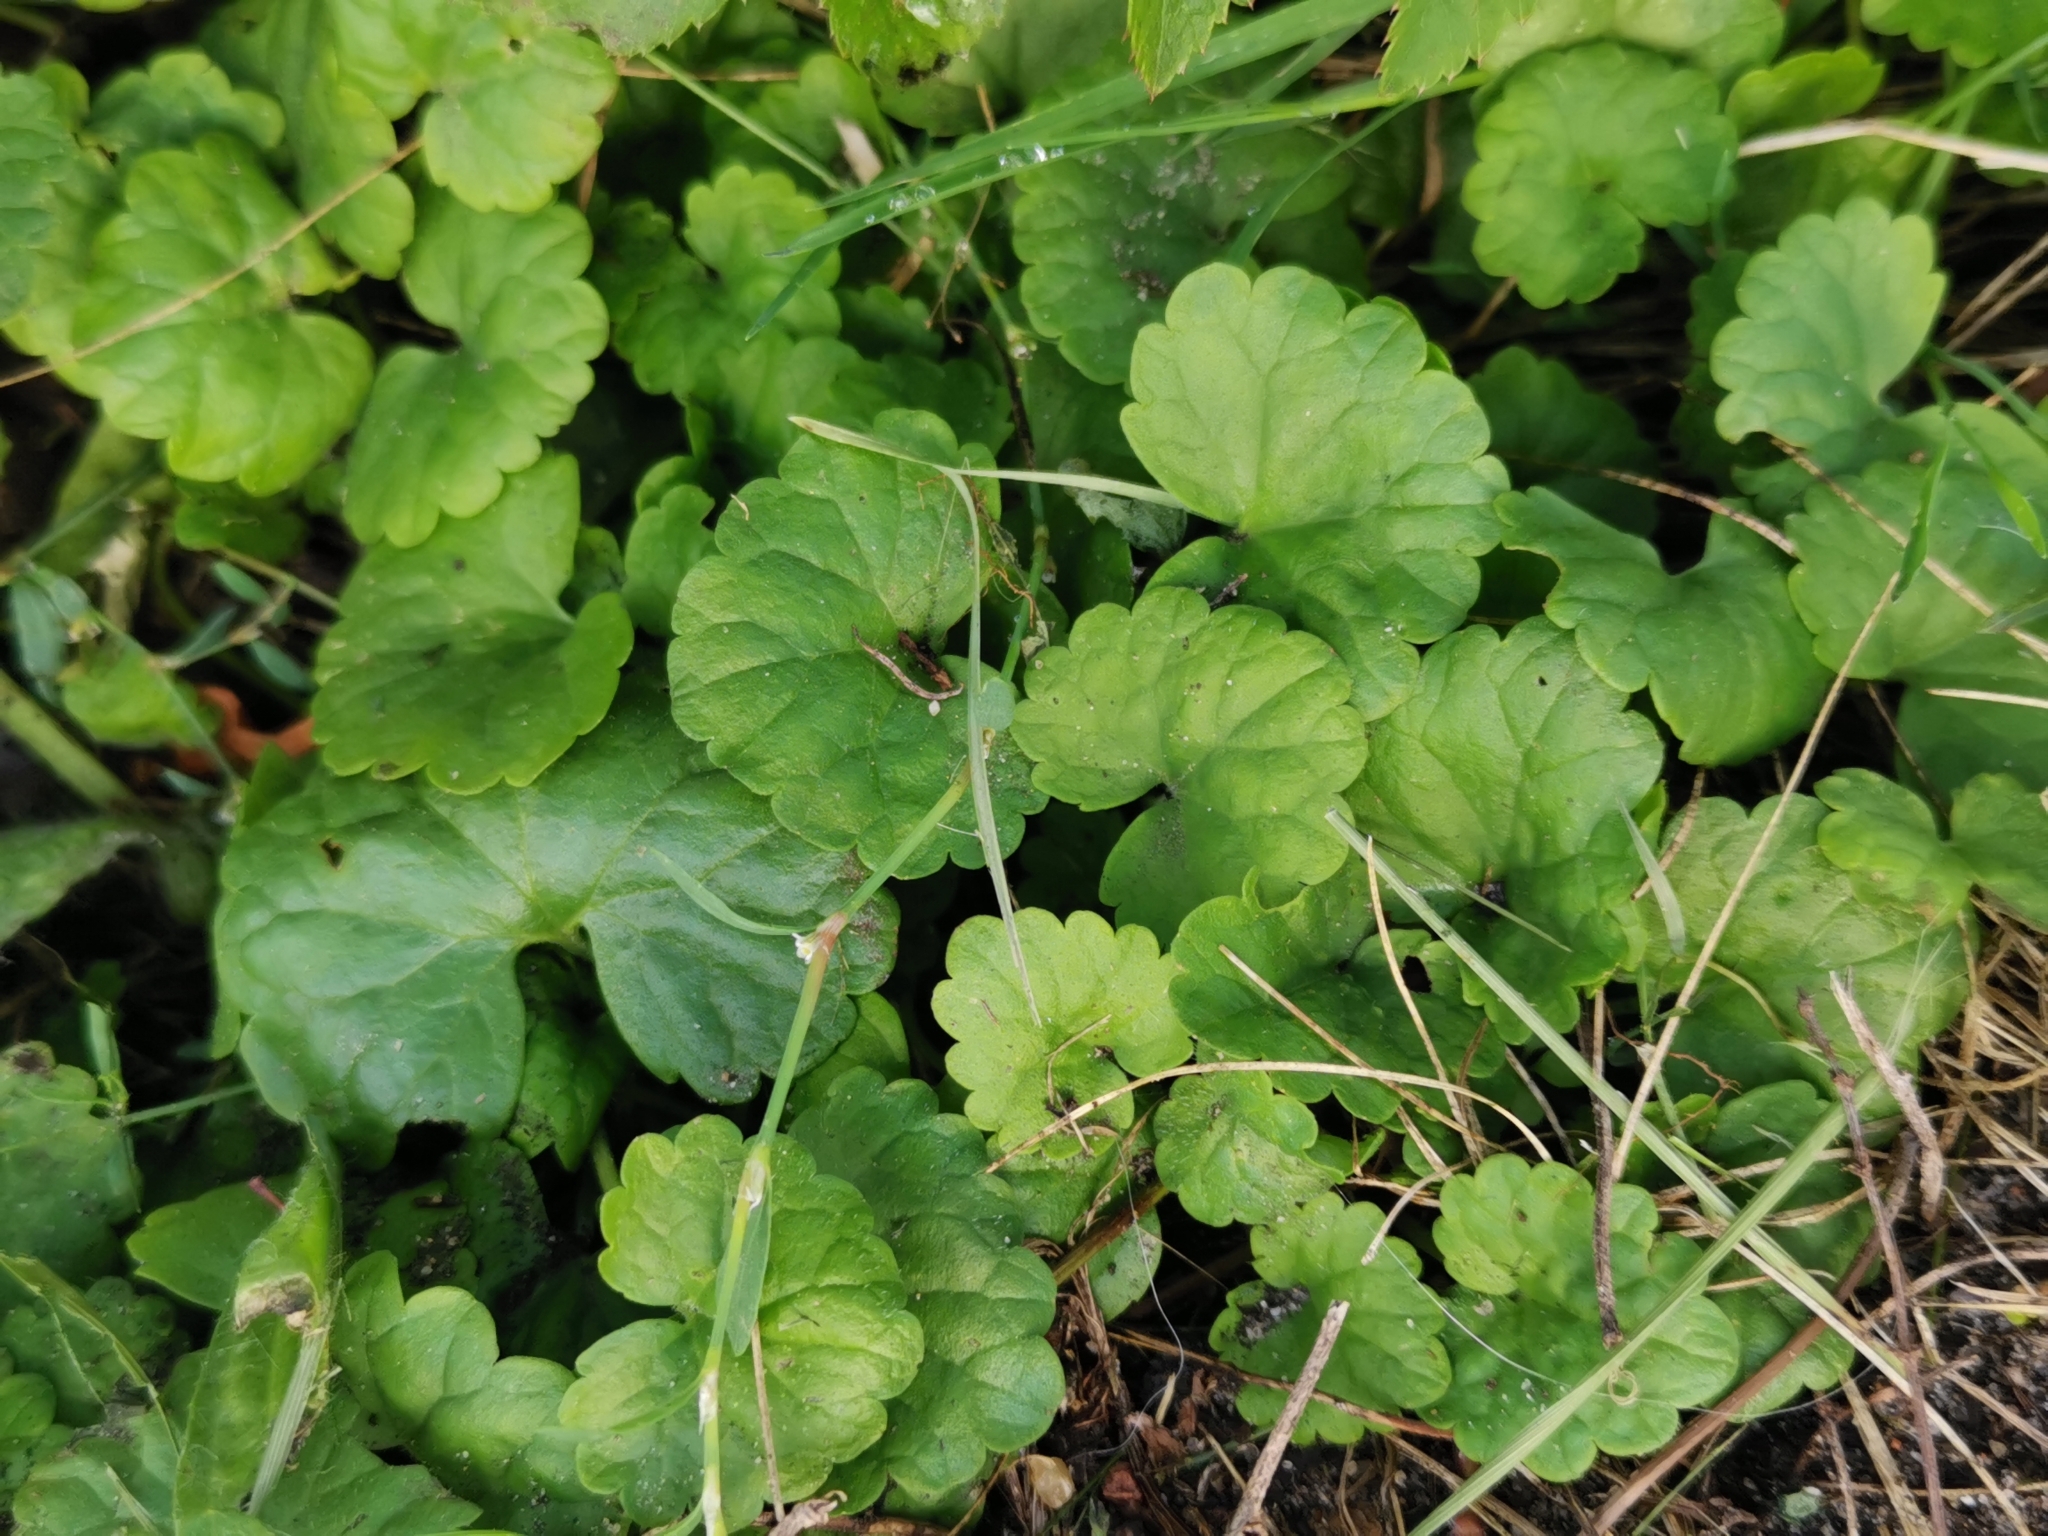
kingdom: Plantae
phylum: Tracheophyta
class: Magnoliopsida
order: Lamiales
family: Lamiaceae
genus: Glechoma
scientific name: Glechoma hederacea
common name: Ground ivy
